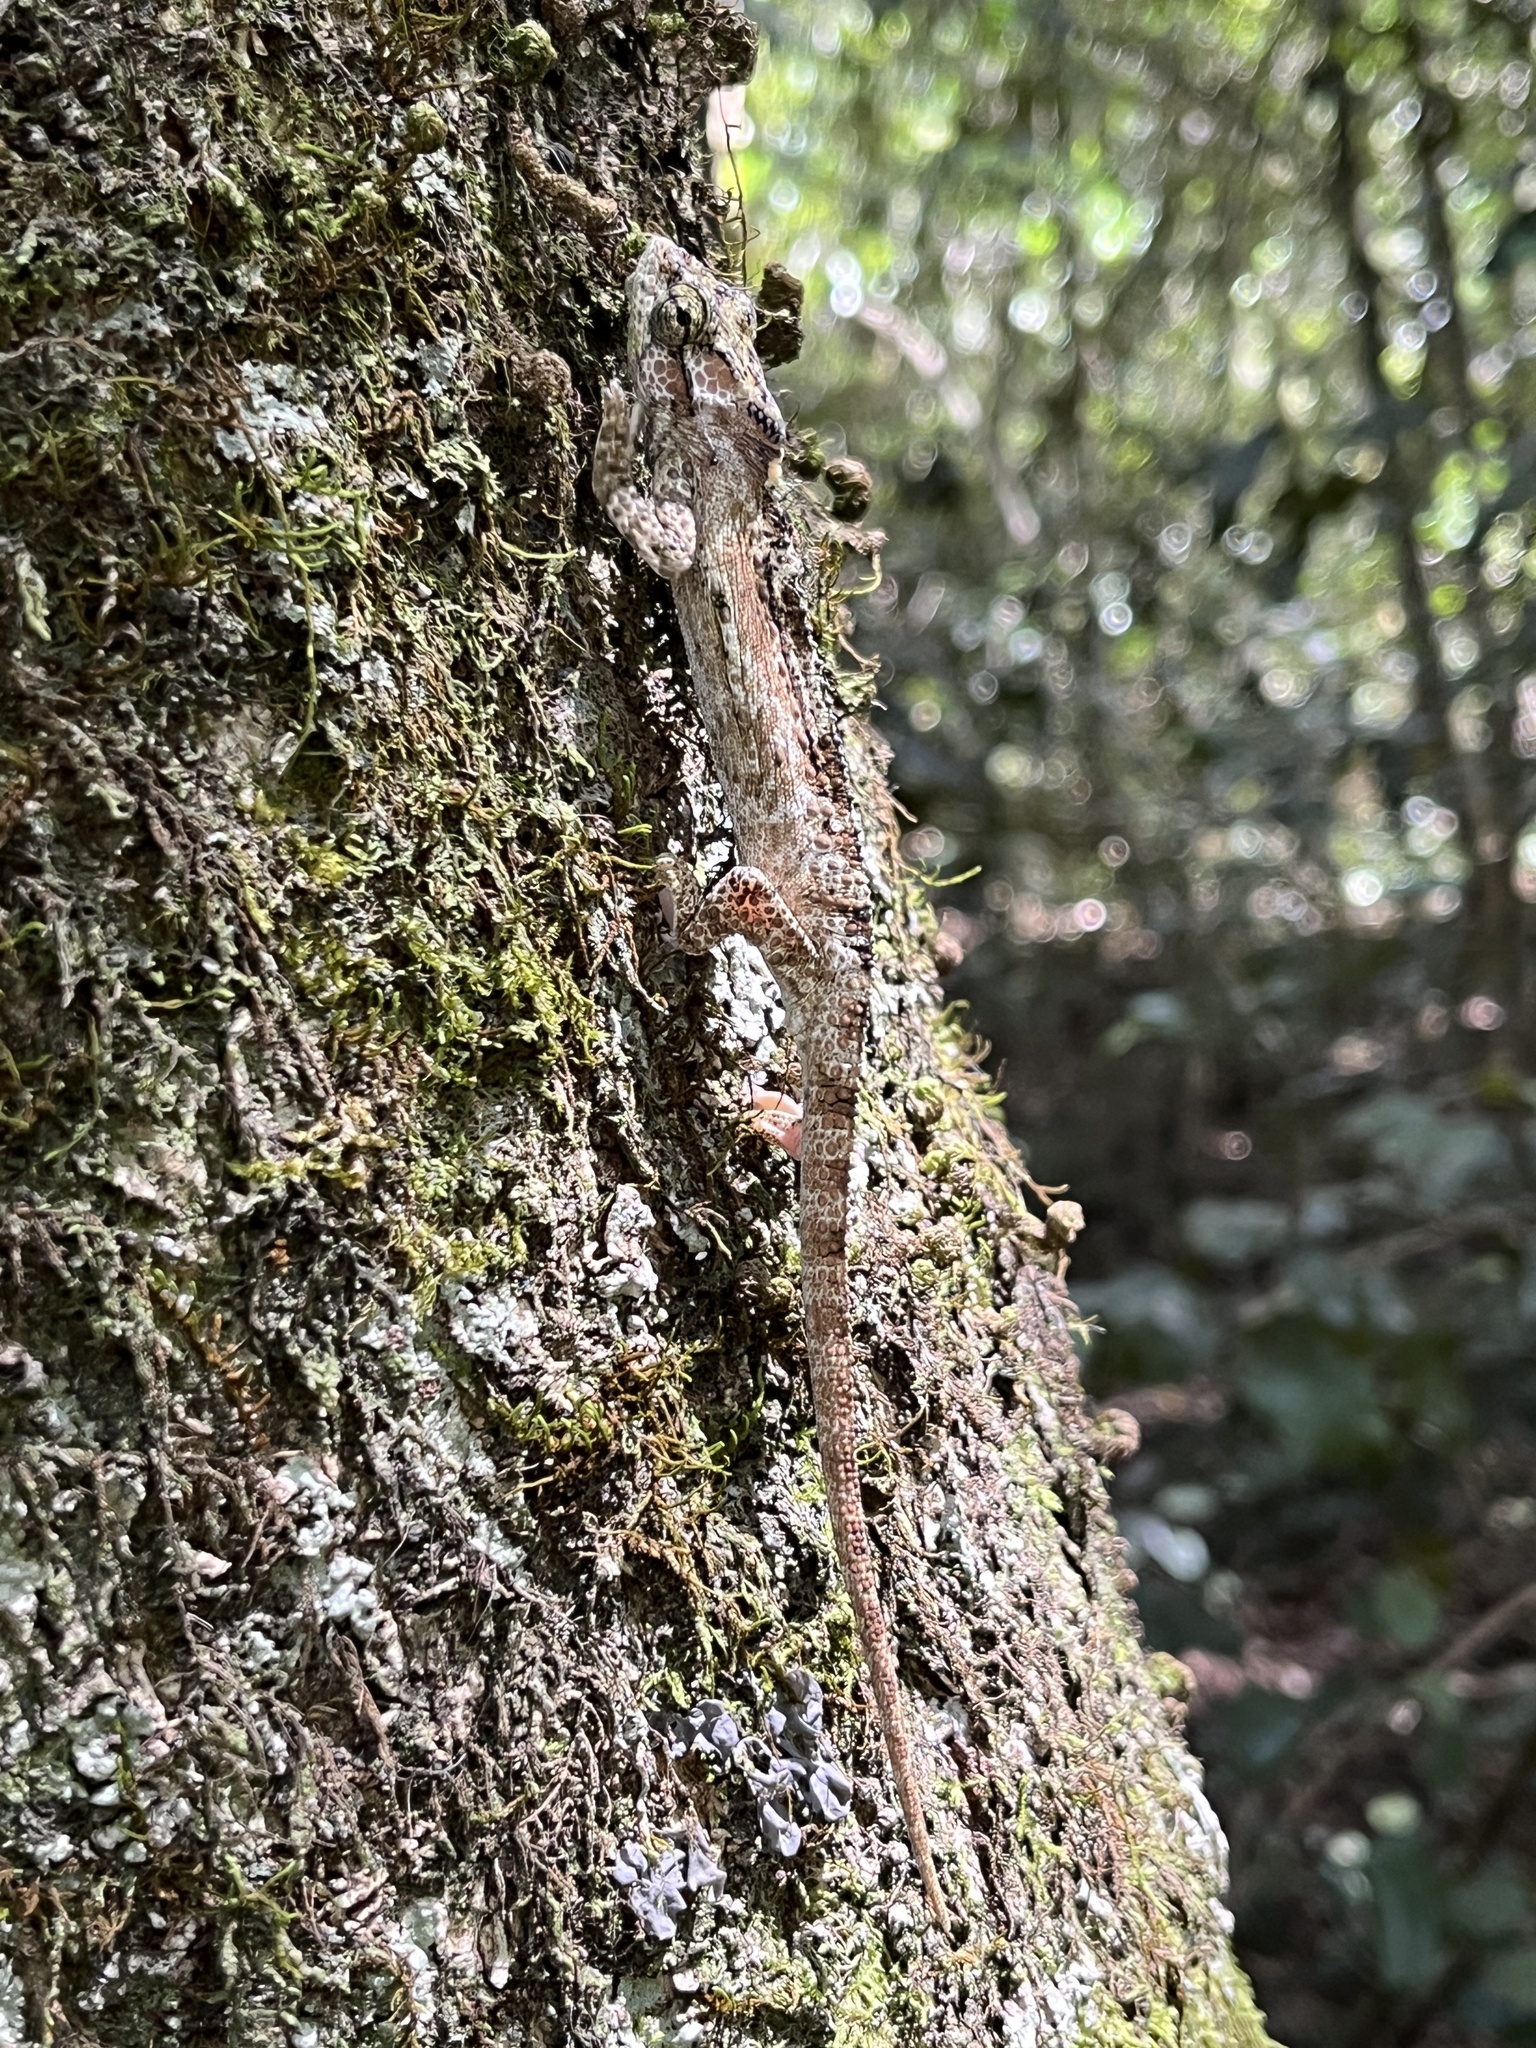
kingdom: Animalia
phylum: Chordata
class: Squamata
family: Chamaeleonidae
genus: Bradypodion
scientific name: Bradypodion damaranum
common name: Knysna dwarf chameleon
